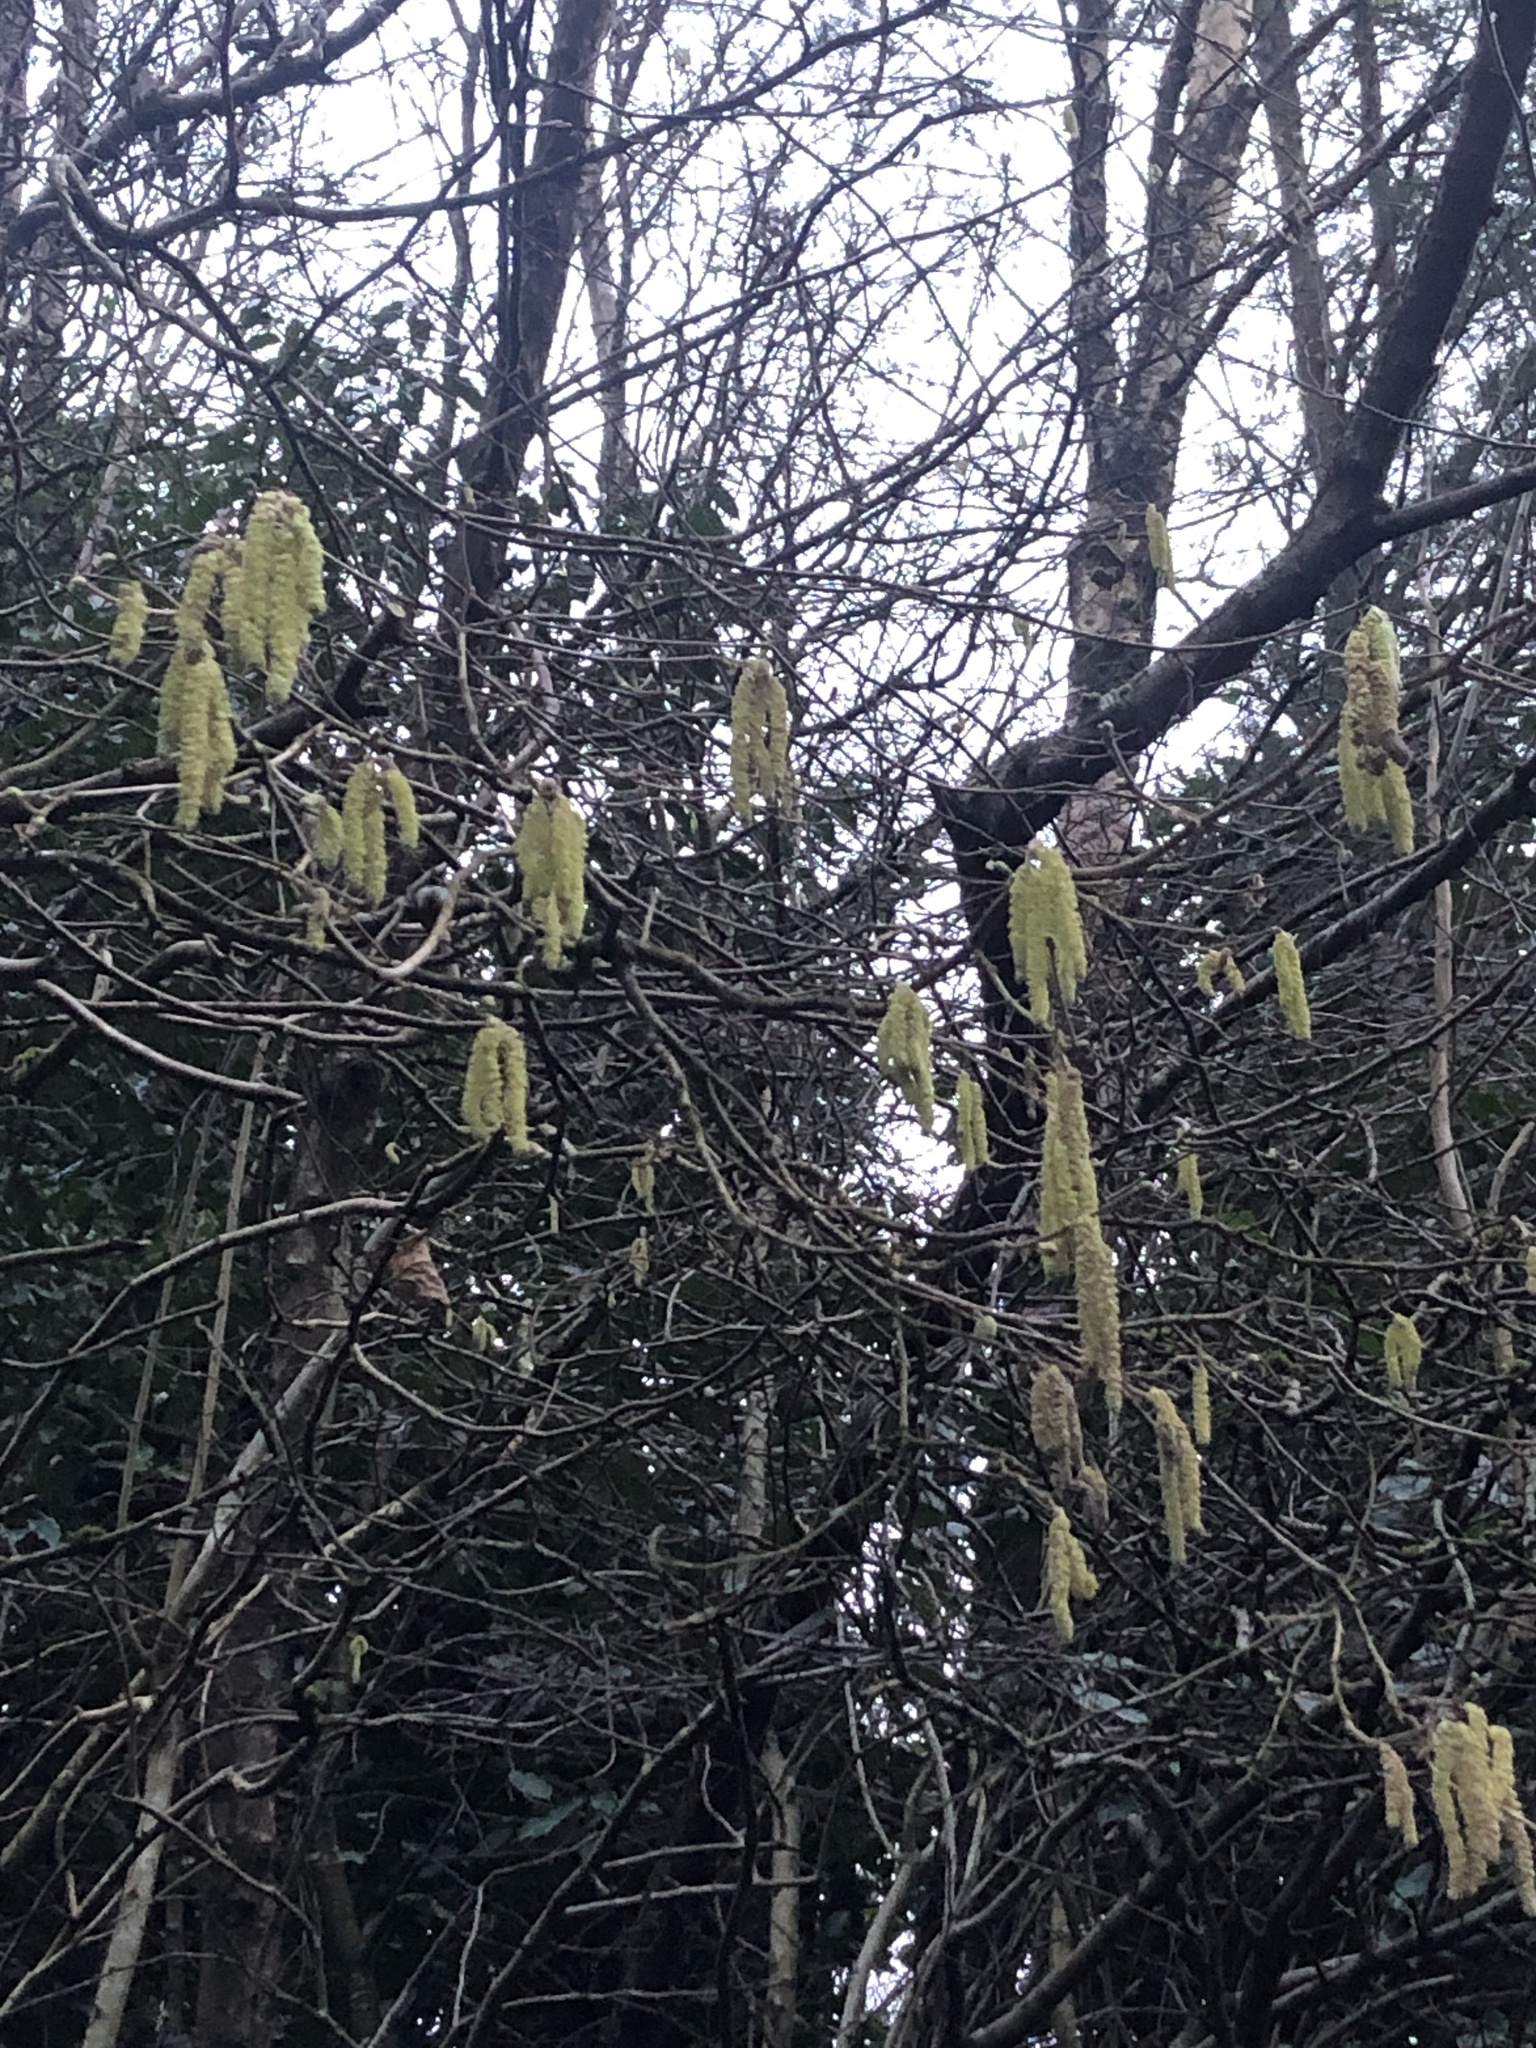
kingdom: Plantae
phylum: Tracheophyta
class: Magnoliopsida
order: Fagales
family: Betulaceae
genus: Corylus
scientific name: Corylus avellana
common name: European hazel
